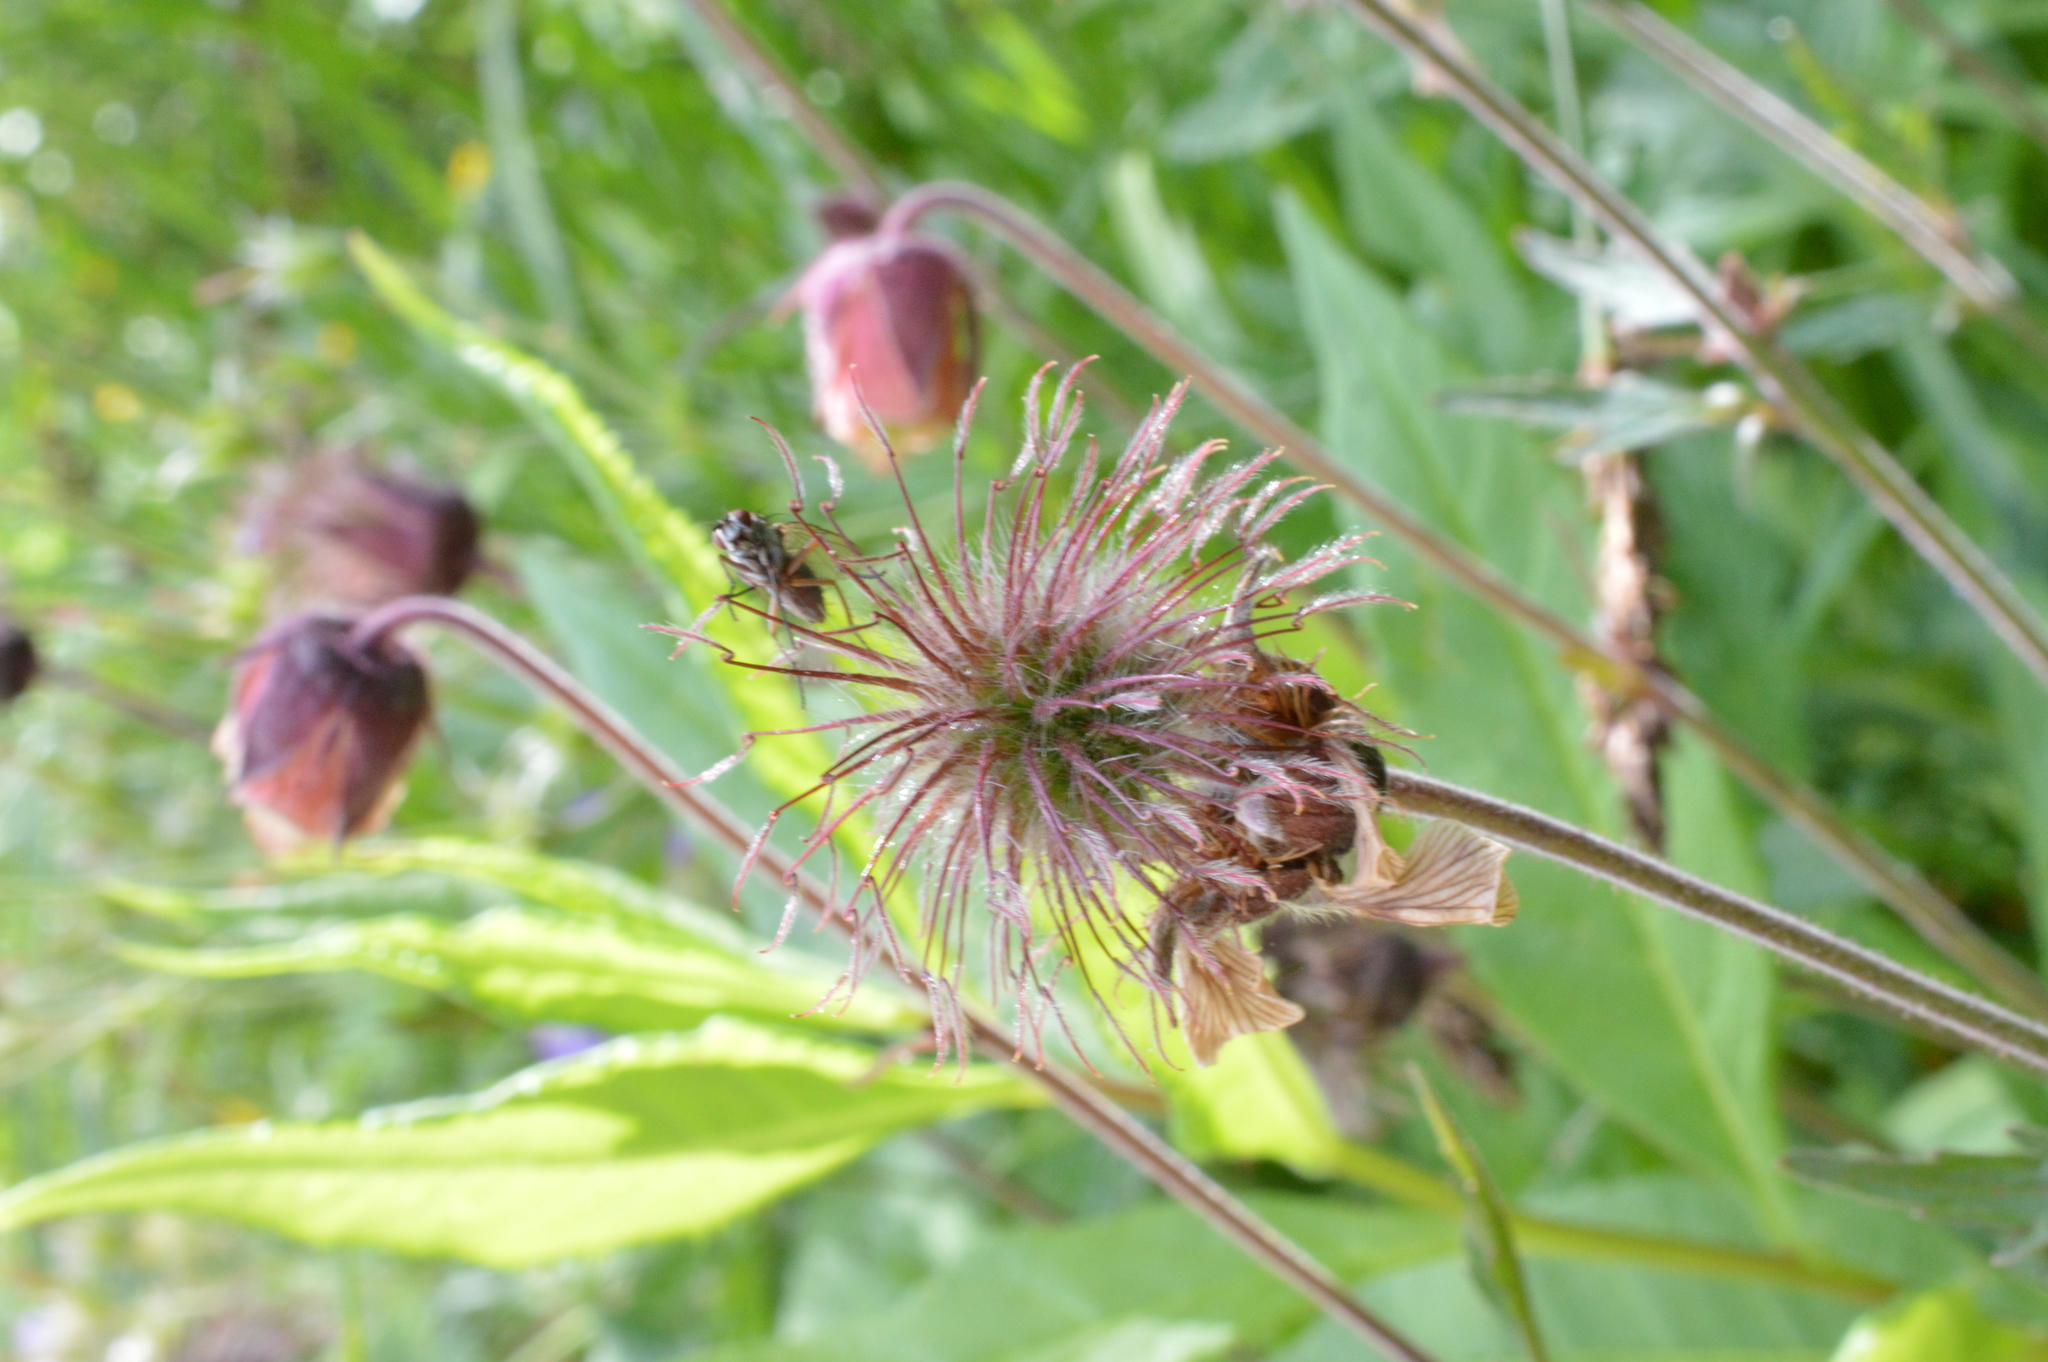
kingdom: Plantae
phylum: Tracheophyta
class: Magnoliopsida
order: Rosales
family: Rosaceae
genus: Geum
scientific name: Geum rivale
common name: Water avens
